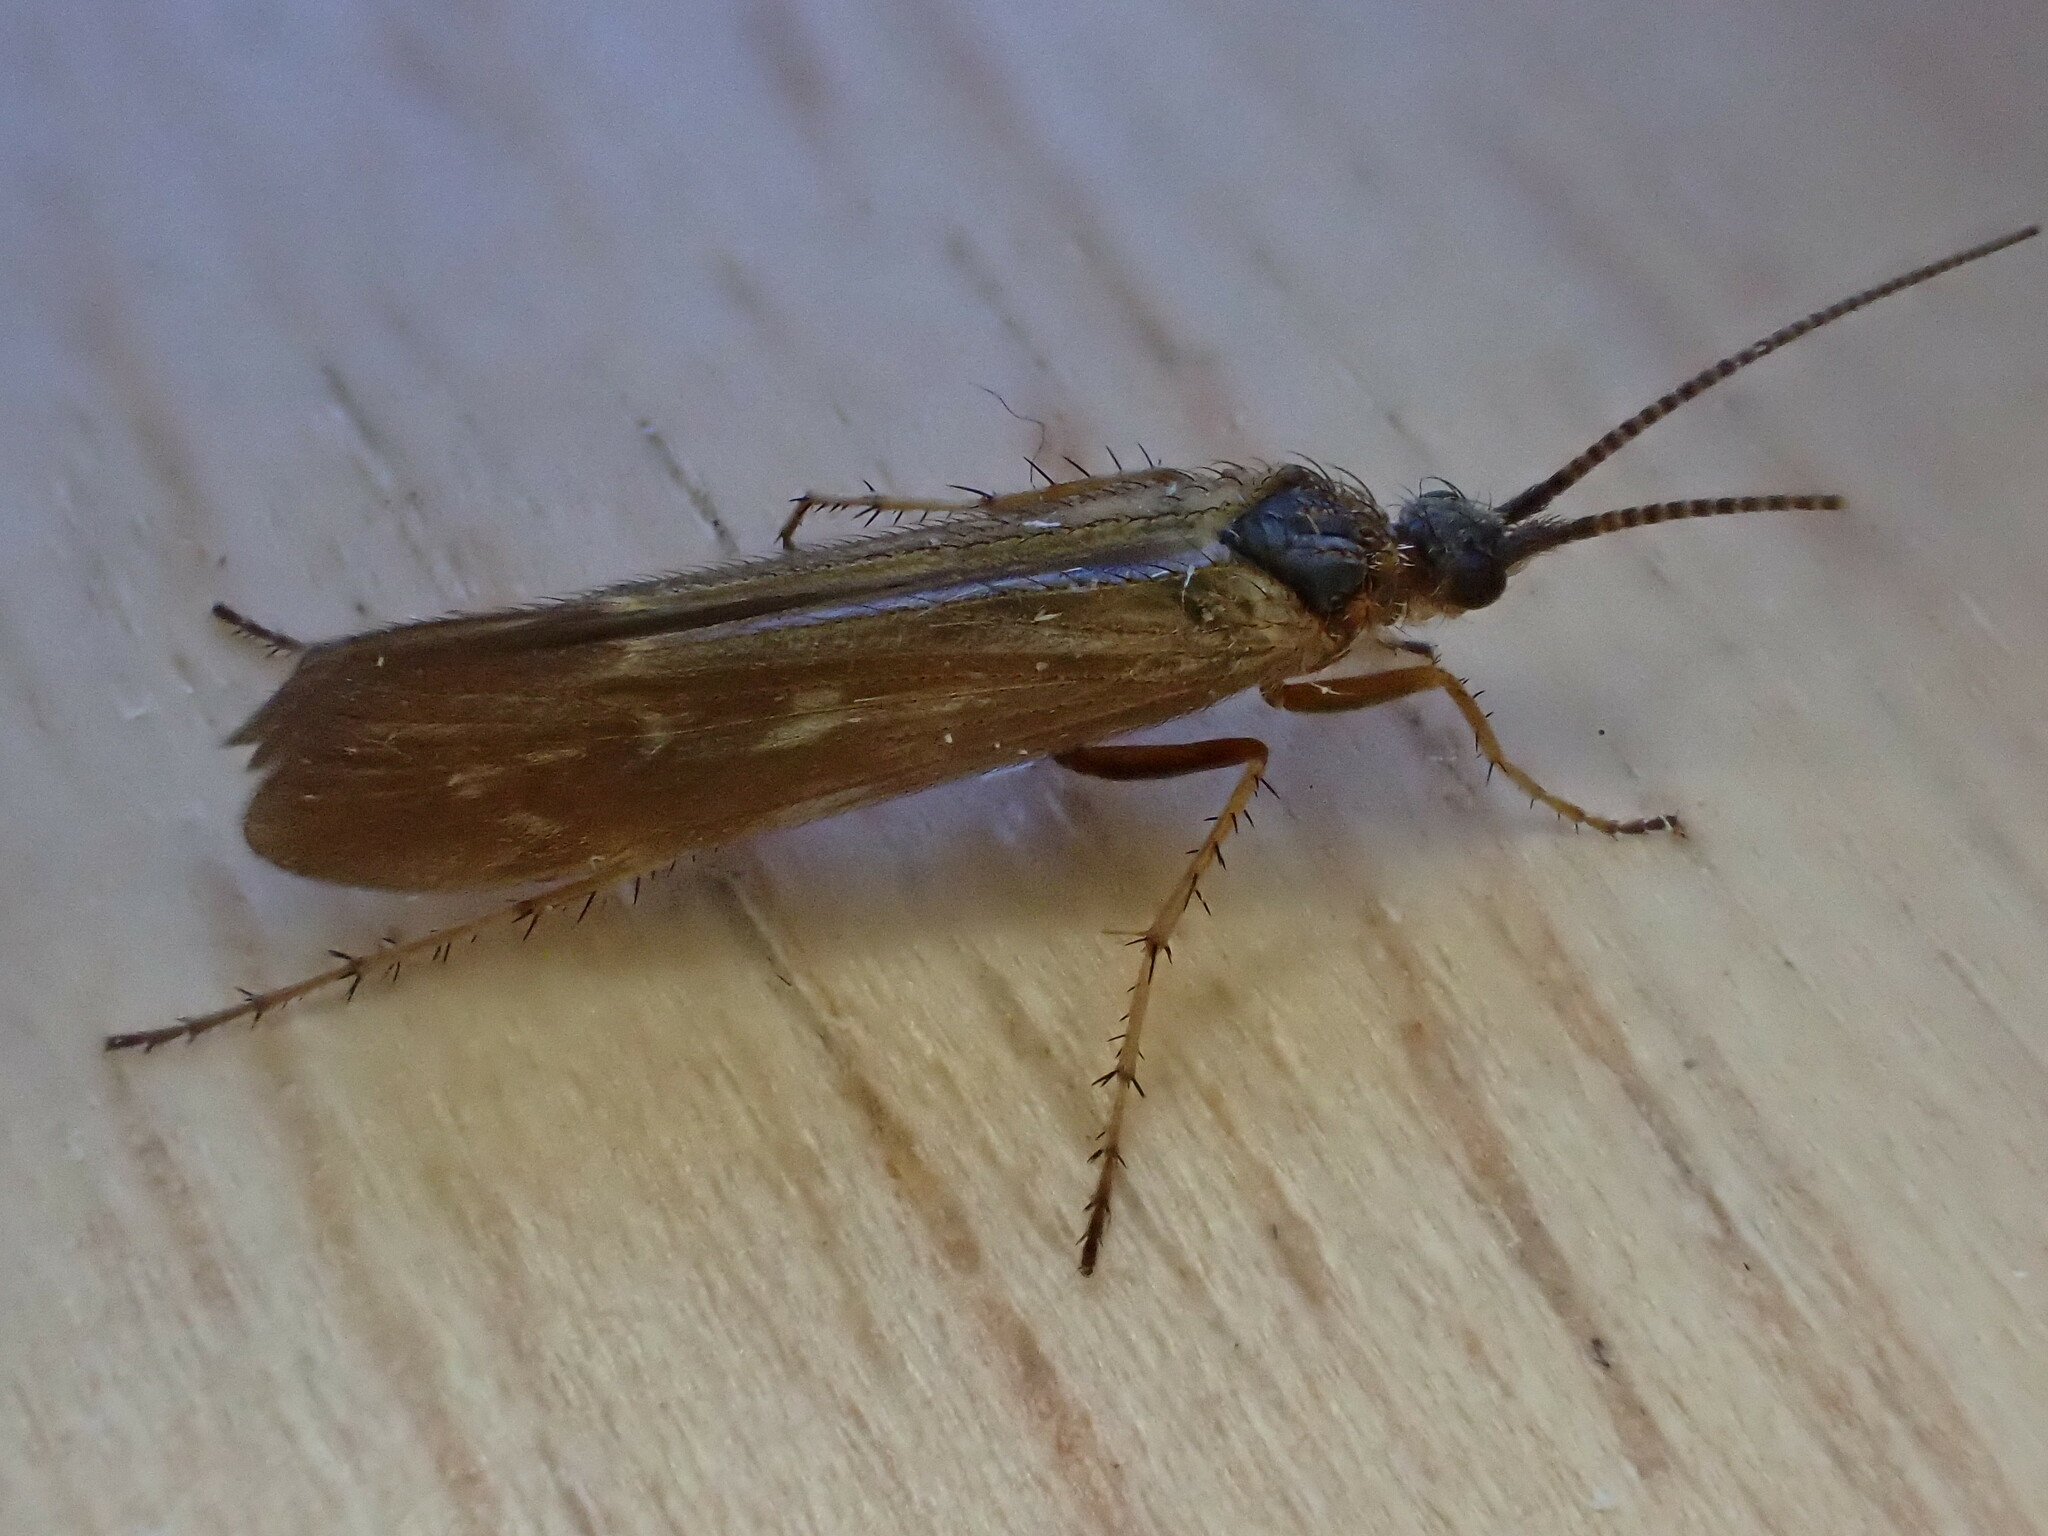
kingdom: Animalia
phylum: Arthropoda
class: Insecta
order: Trichoptera
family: Limnephilidae
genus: Limnephilus
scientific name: Limnephilus auricula
